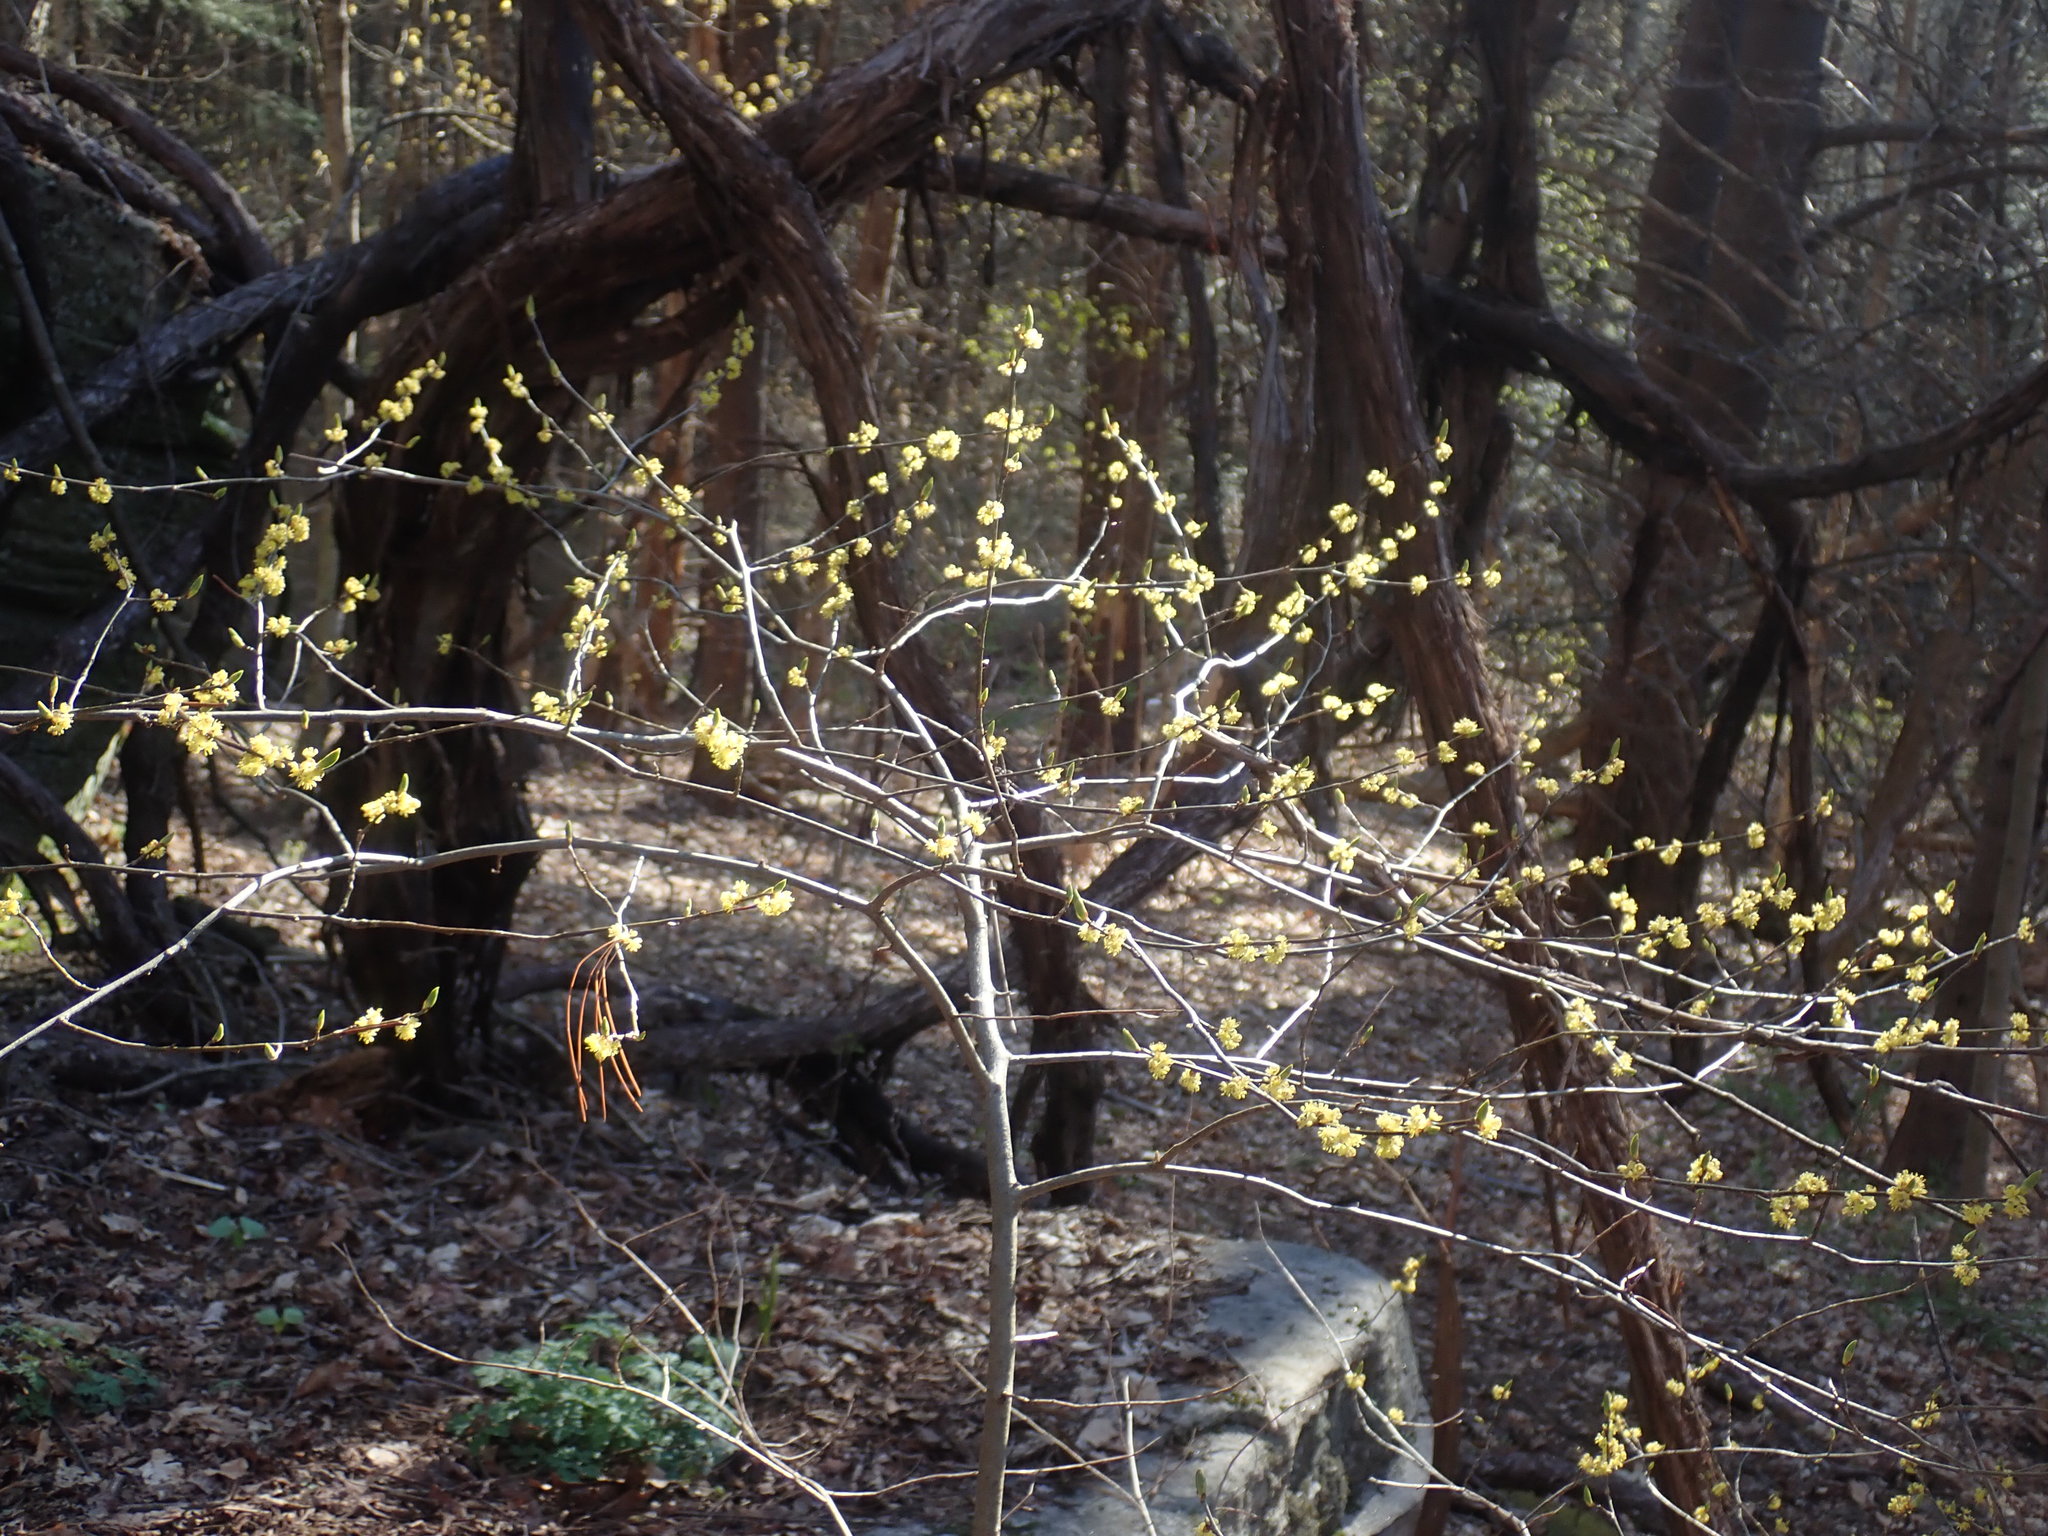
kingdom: Plantae
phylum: Tracheophyta
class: Magnoliopsida
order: Laurales
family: Lauraceae
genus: Lindera
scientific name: Lindera benzoin
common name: Spicebush
